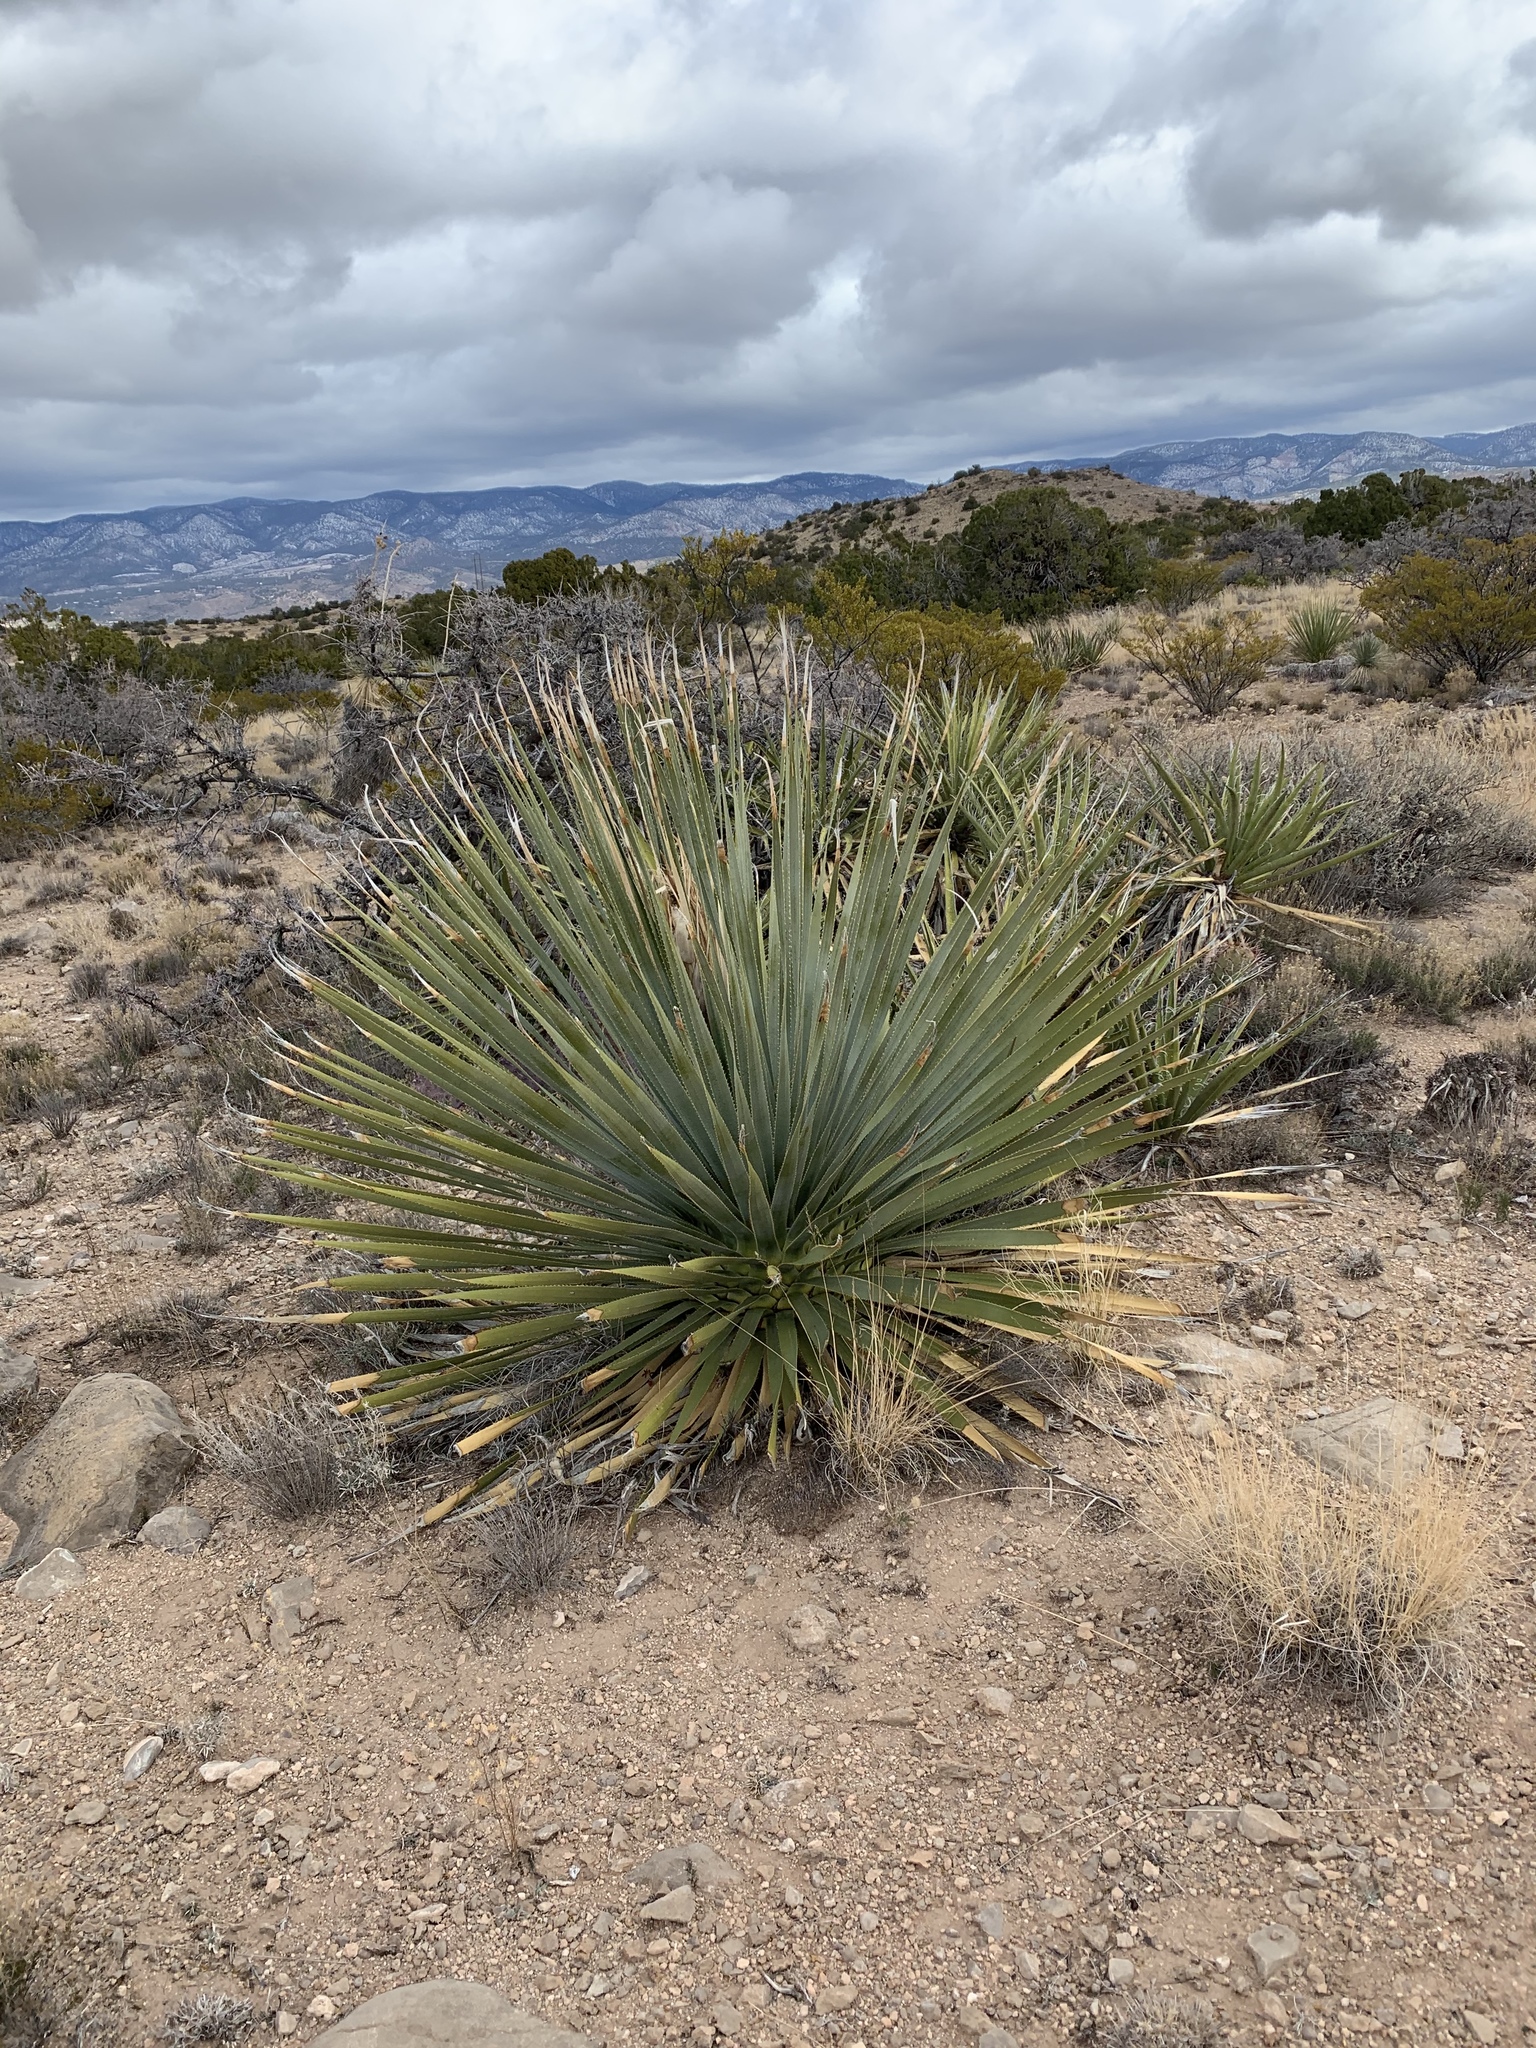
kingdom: Plantae
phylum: Tracheophyta
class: Liliopsida
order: Asparagales
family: Asparagaceae
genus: Dasylirion
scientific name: Dasylirion wheeleri
